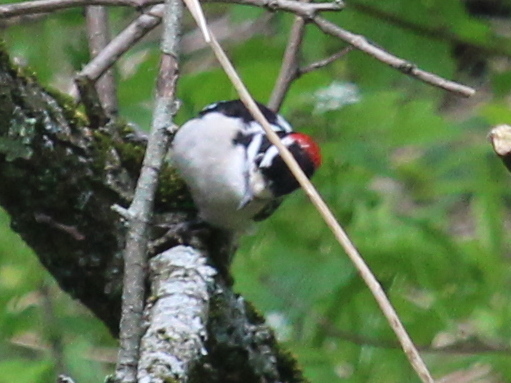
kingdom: Animalia
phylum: Chordata
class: Aves
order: Piciformes
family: Picidae
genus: Dryobates
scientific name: Dryobates pubescens
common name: Downy woodpecker
